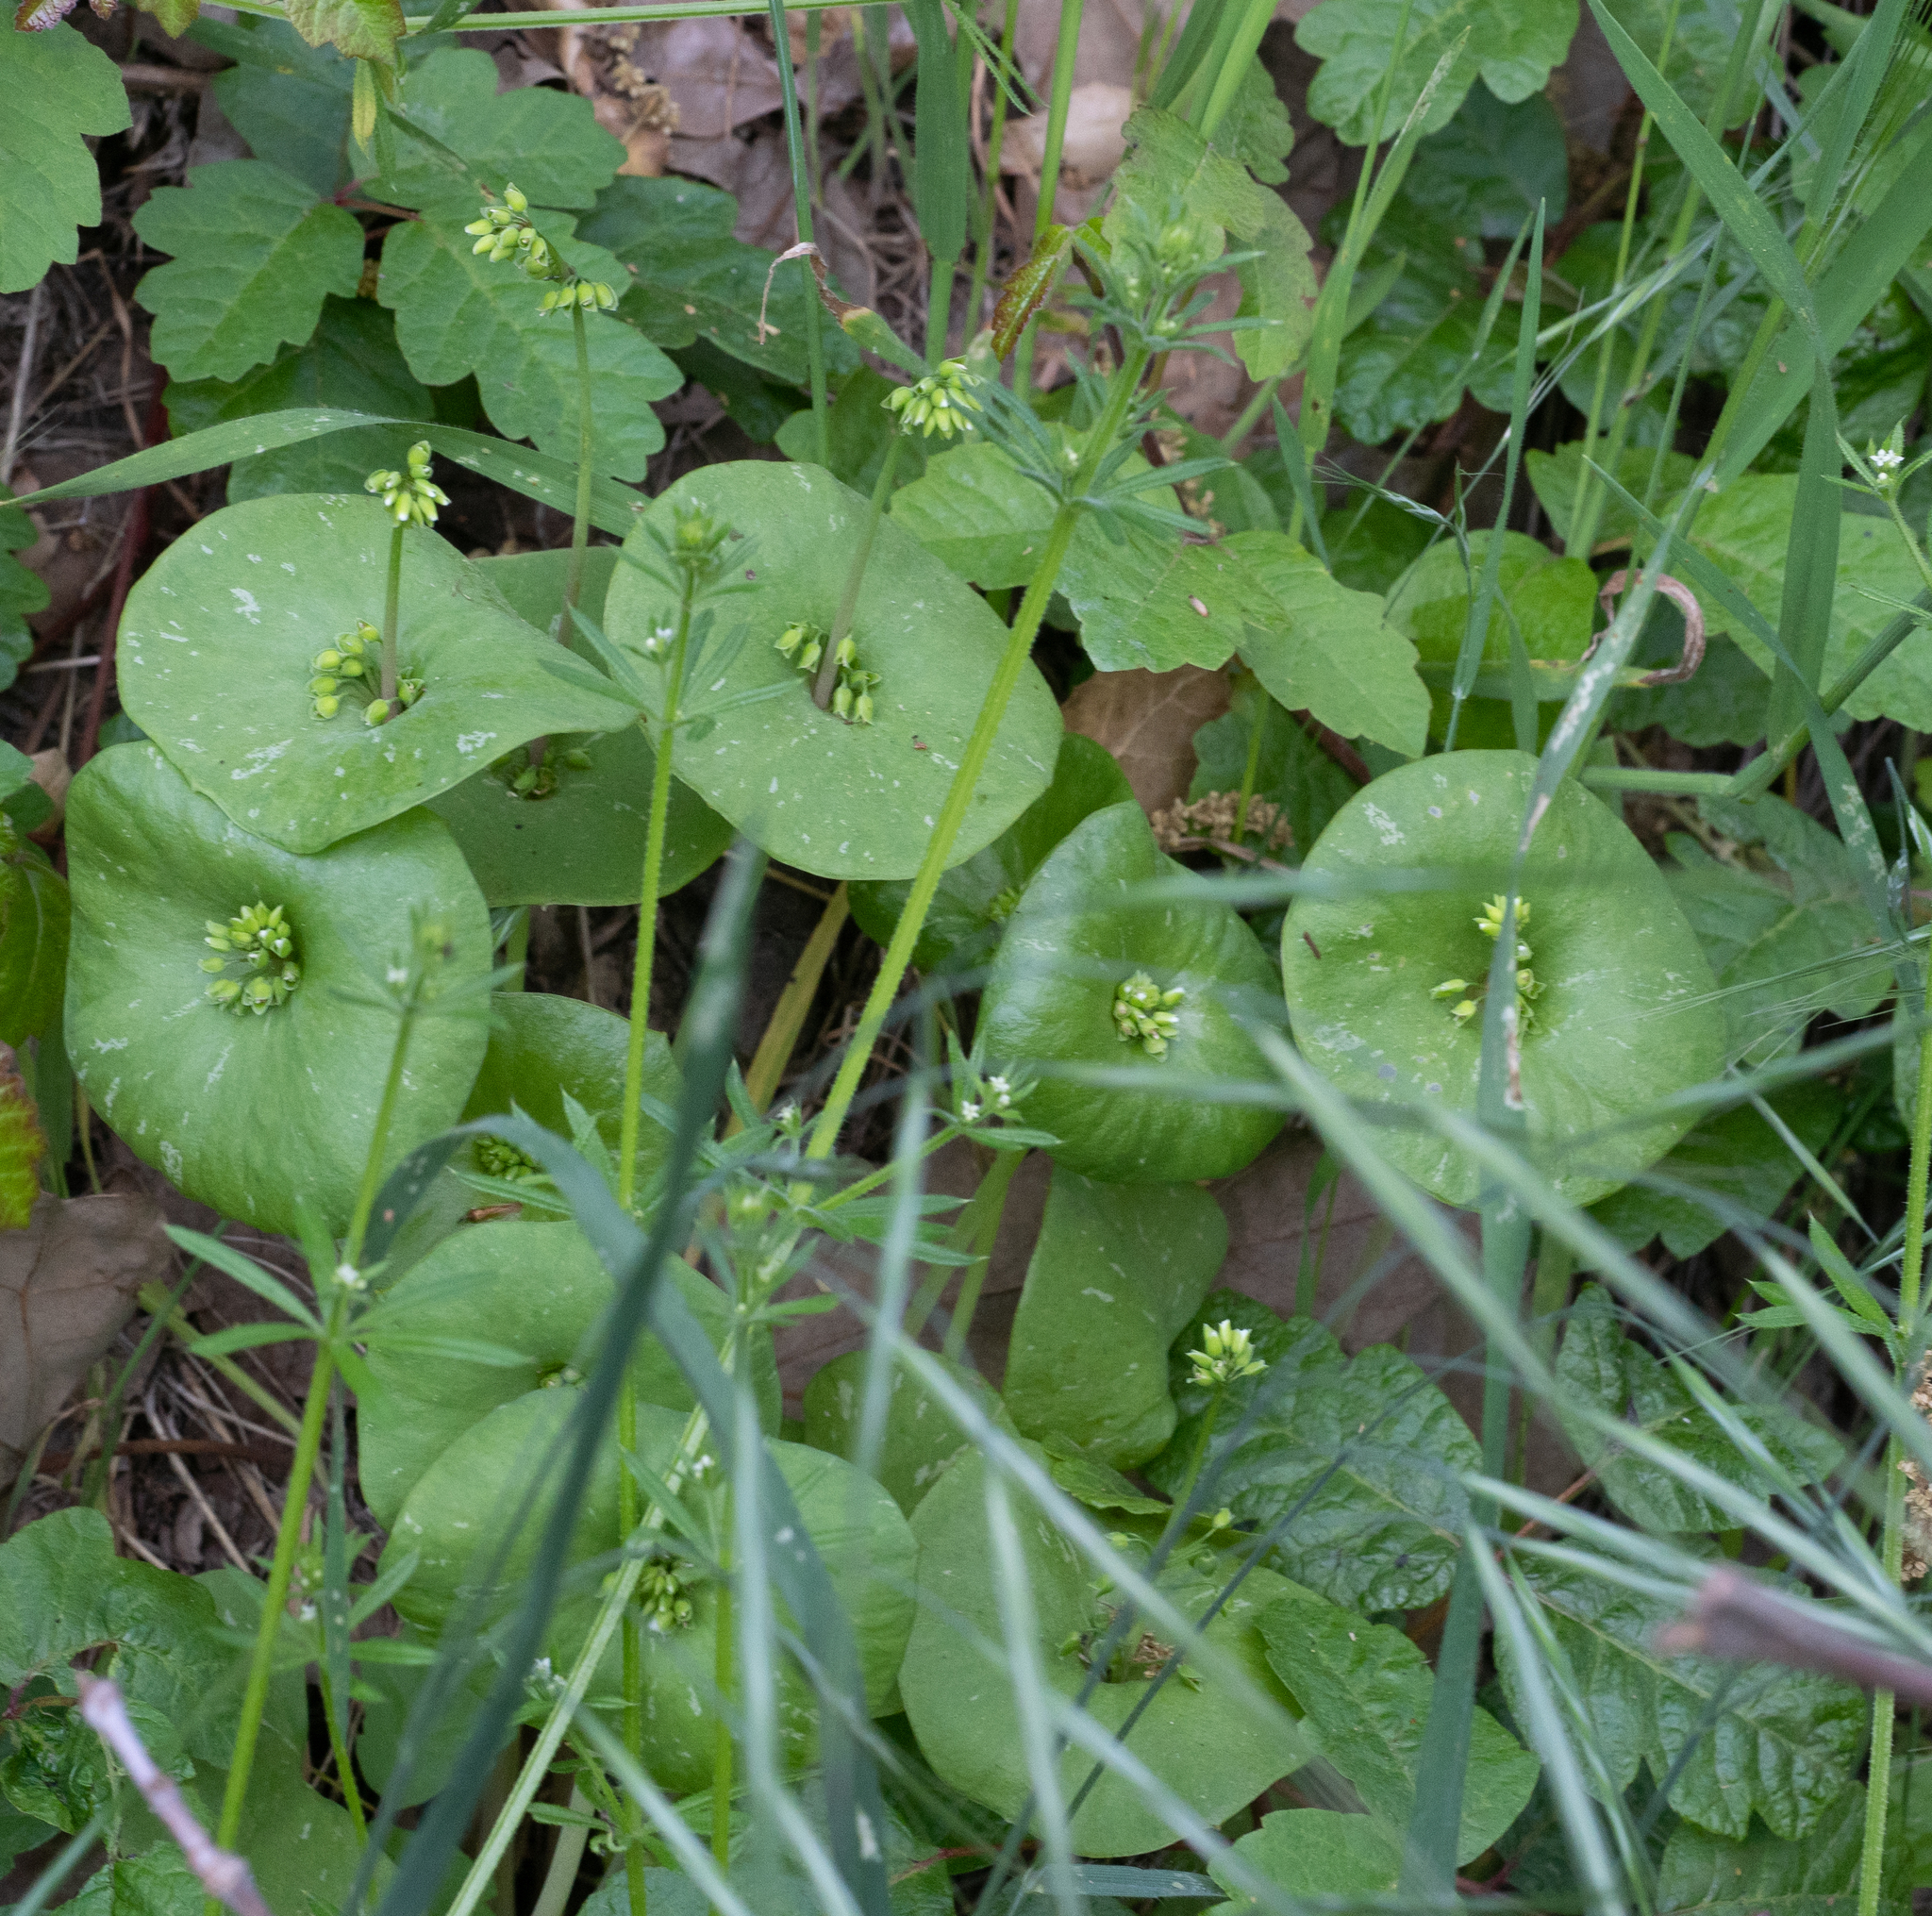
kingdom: Plantae
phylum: Tracheophyta
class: Magnoliopsida
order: Caryophyllales
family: Montiaceae
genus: Claytonia
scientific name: Claytonia perfoliata
